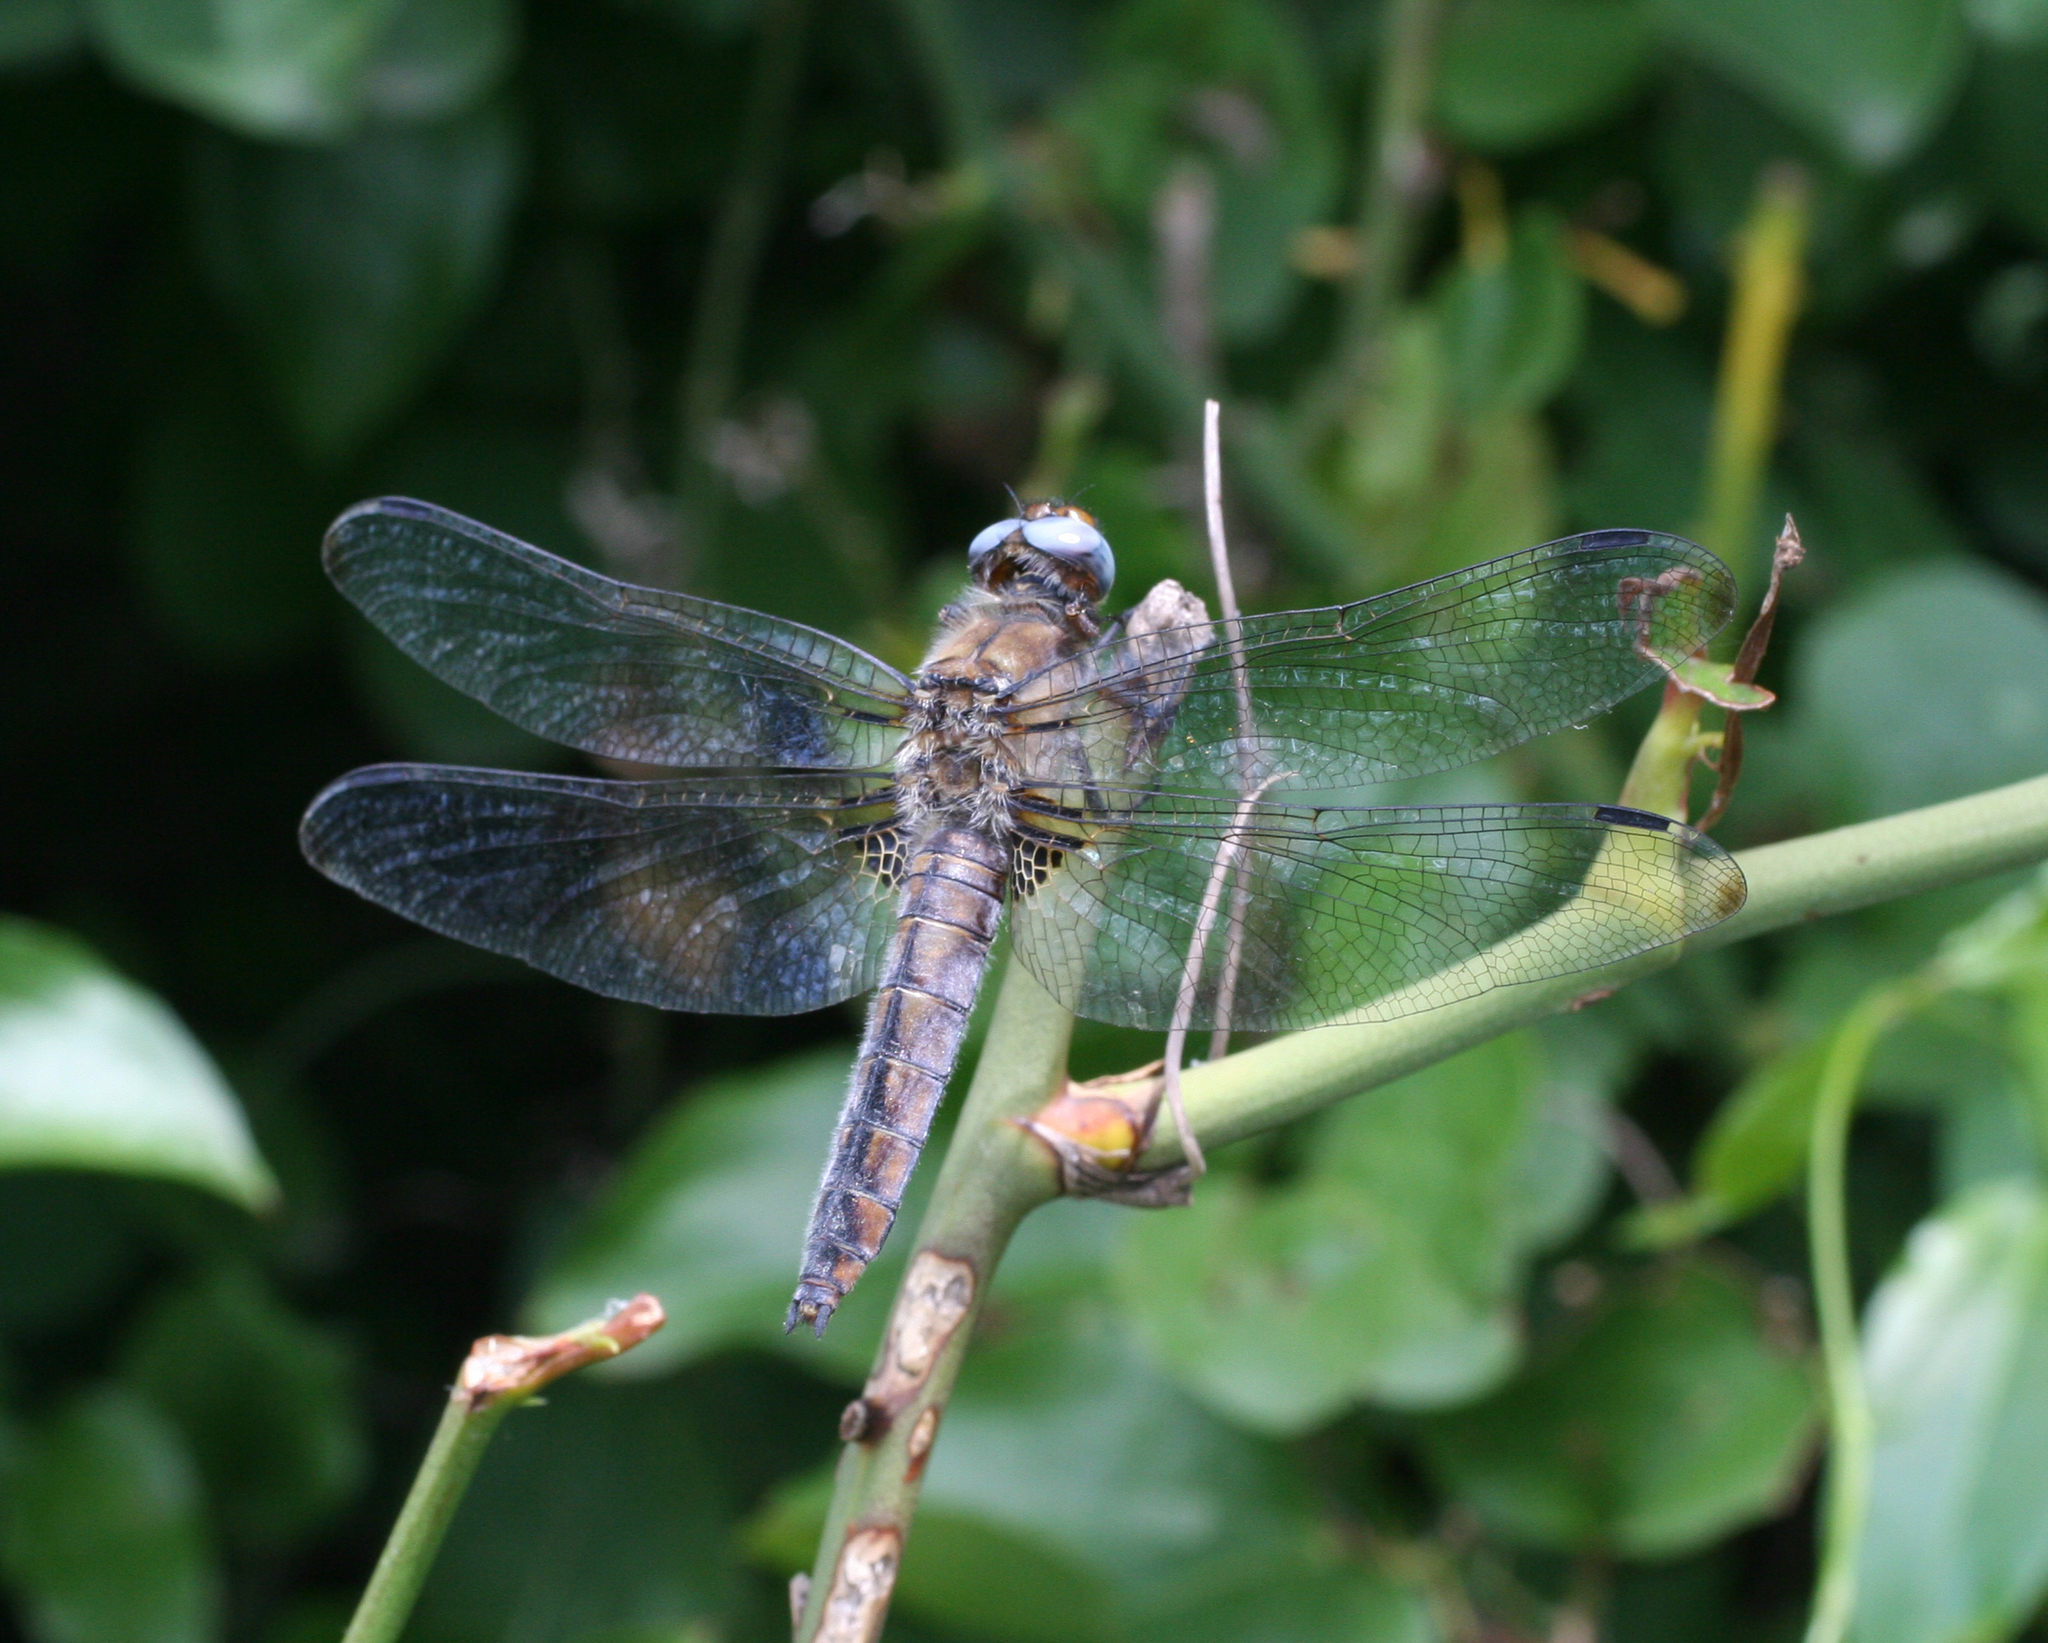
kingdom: Animalia
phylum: Arthropoda
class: Insecta
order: Odonata
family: Libellulidae
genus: Libellula
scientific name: Libellula fulva
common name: Blue chaser
